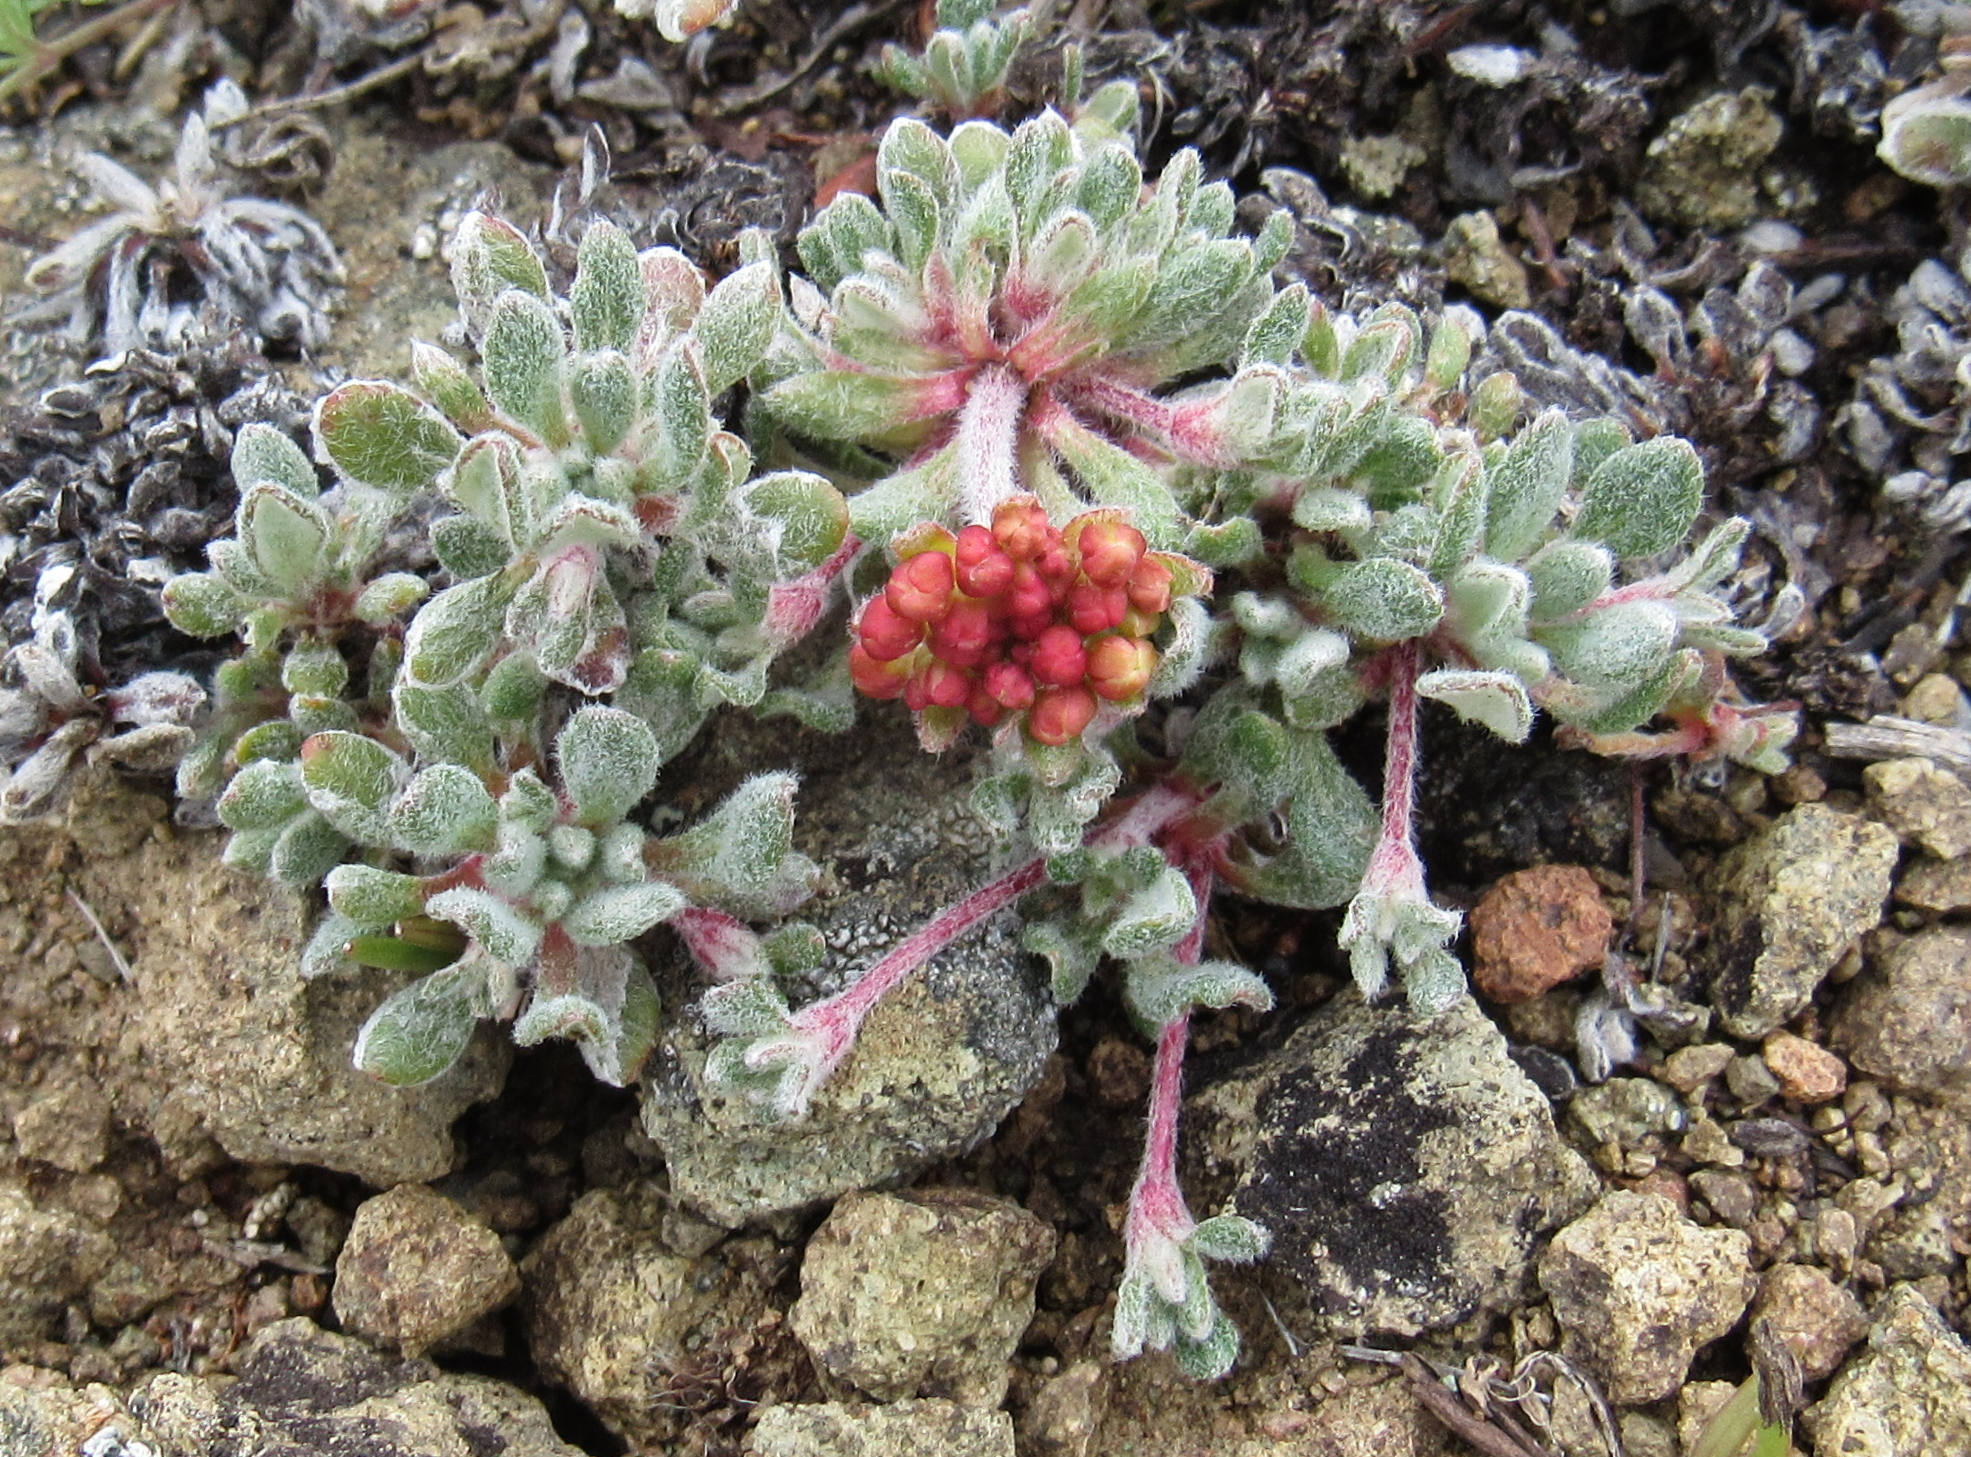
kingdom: Plantae
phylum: Tracheophyta
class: Magnoliopsida
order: Caryophyllales
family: Polygonaceae
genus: Eriogonum
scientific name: Eriogonum caespitosum
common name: Matted wild buckwheat
